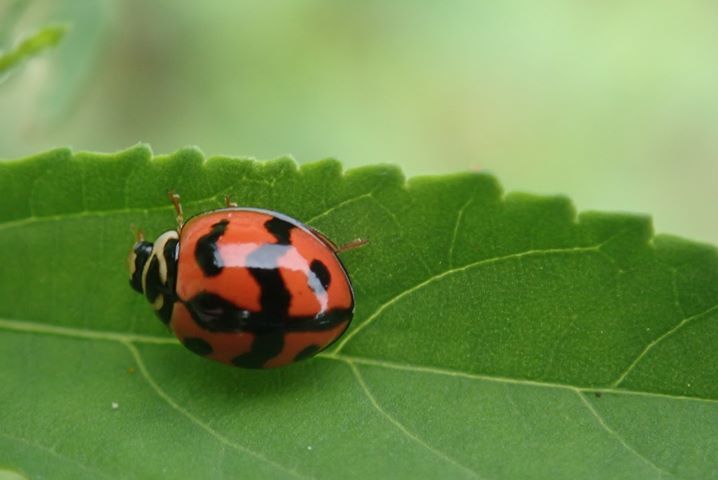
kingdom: Animalia
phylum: Arthropoda
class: Insecta
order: Coleoptera
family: Coccinellidae
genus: Cheilomenes
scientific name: Cheilomenes sexmaculata
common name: Ladybird beetle
